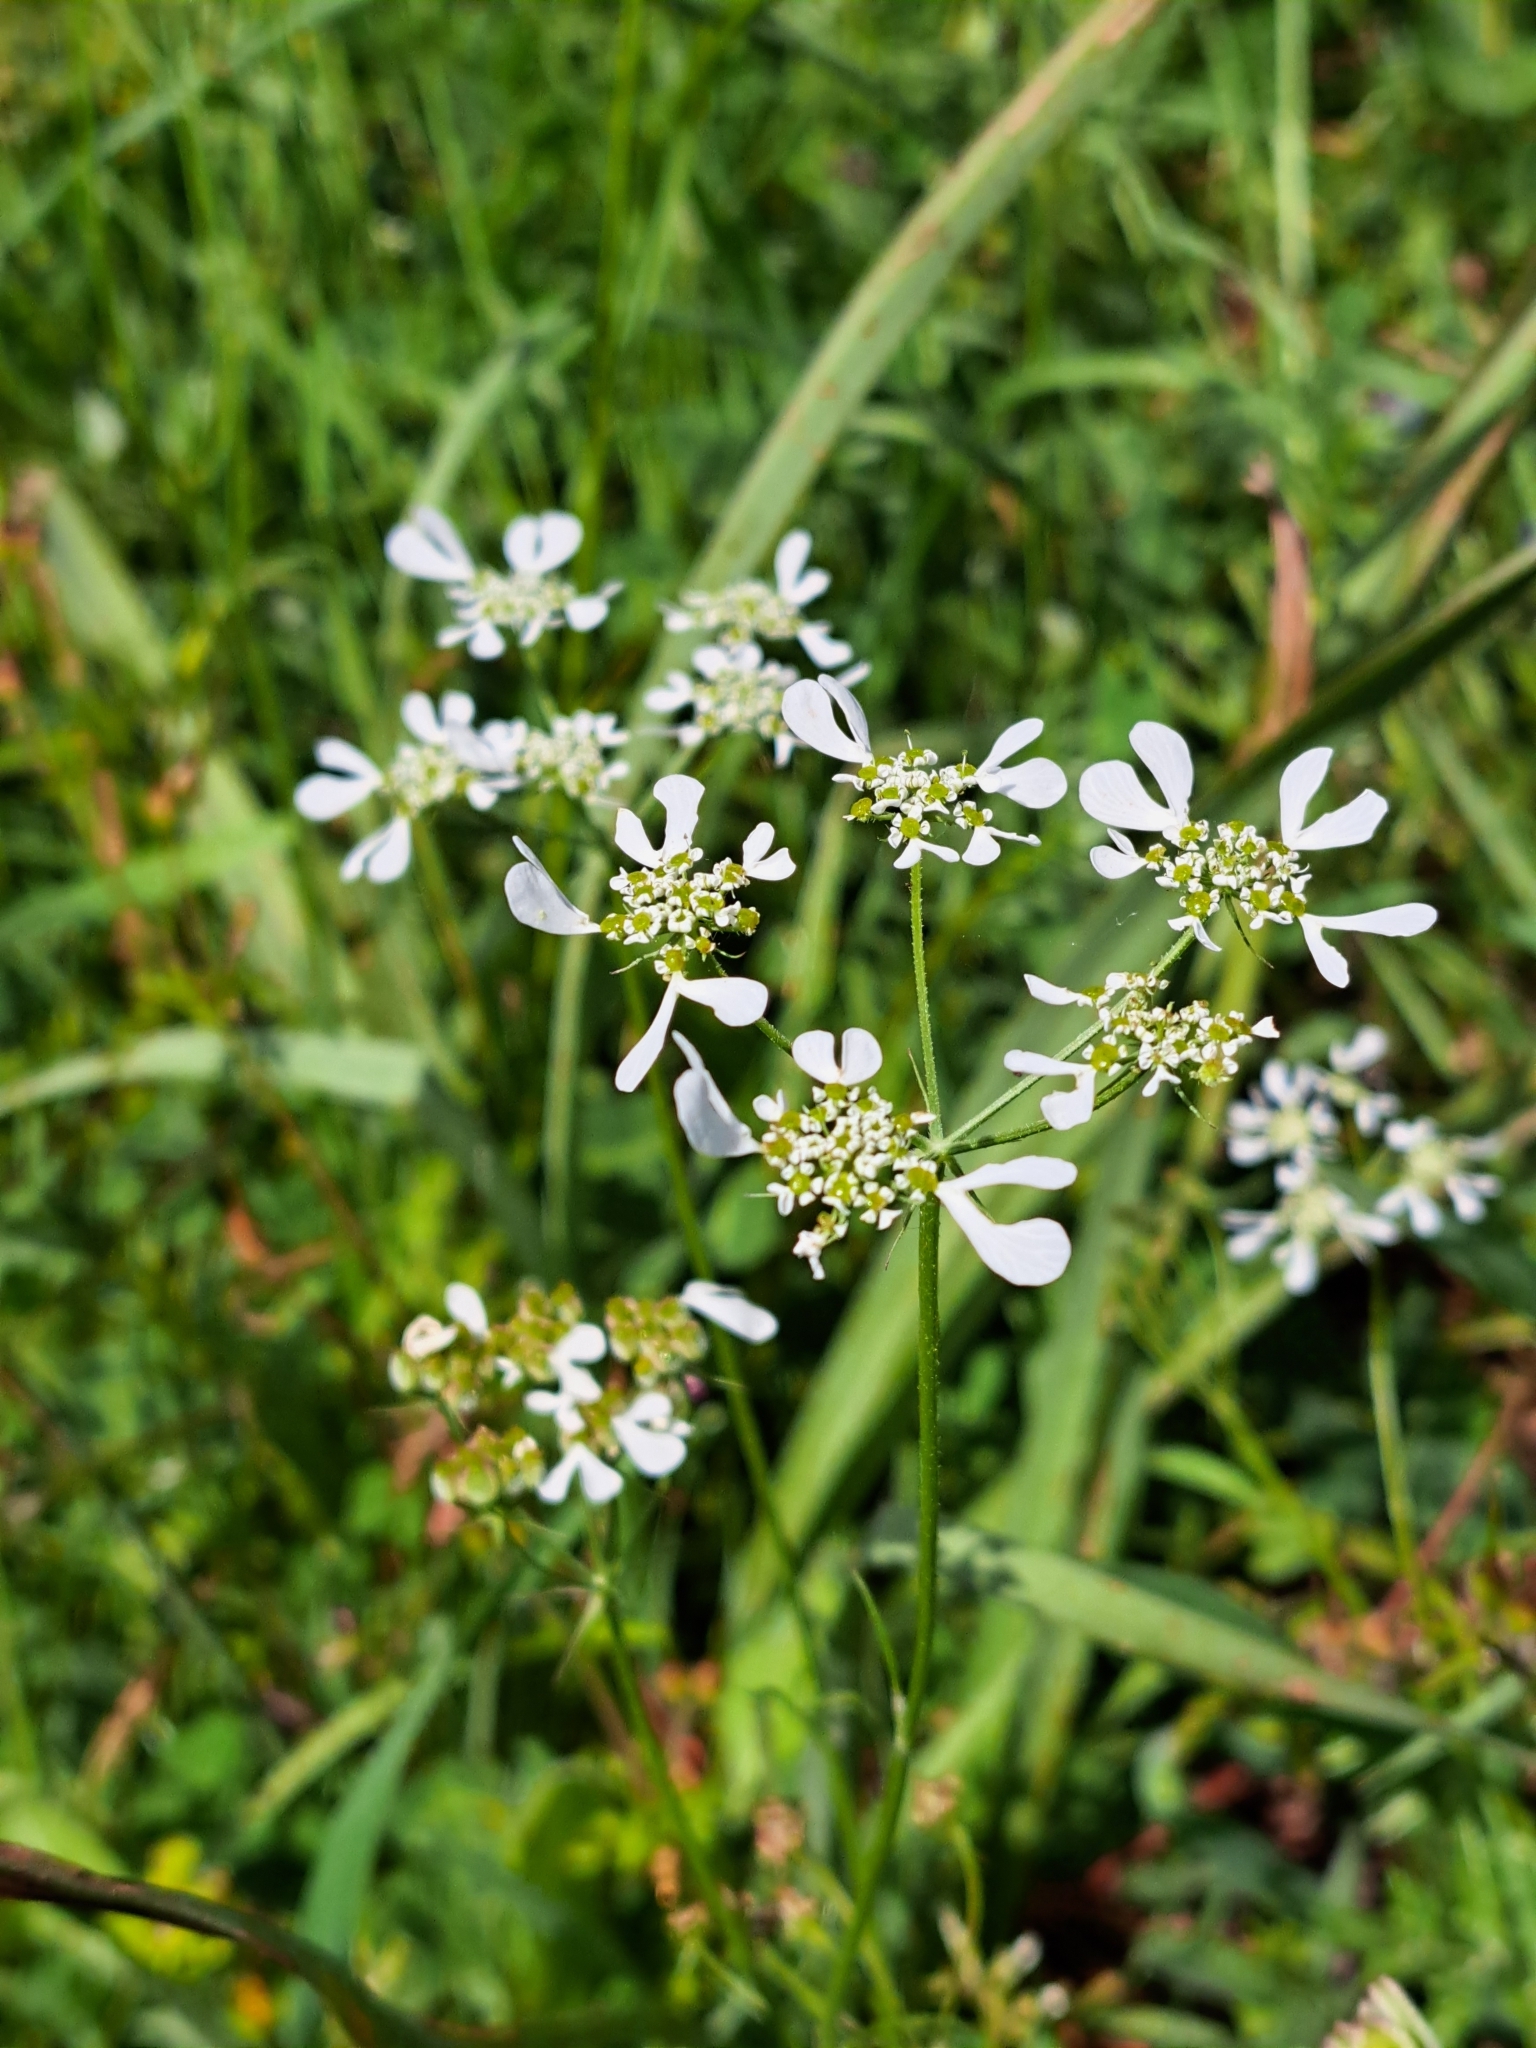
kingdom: Plantae
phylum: Tracheophyta
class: Magnoliopsida
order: Apiales
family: Apiaceae
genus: Tordylium
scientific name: Tordylium apulum
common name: Mediterranean hartwort
